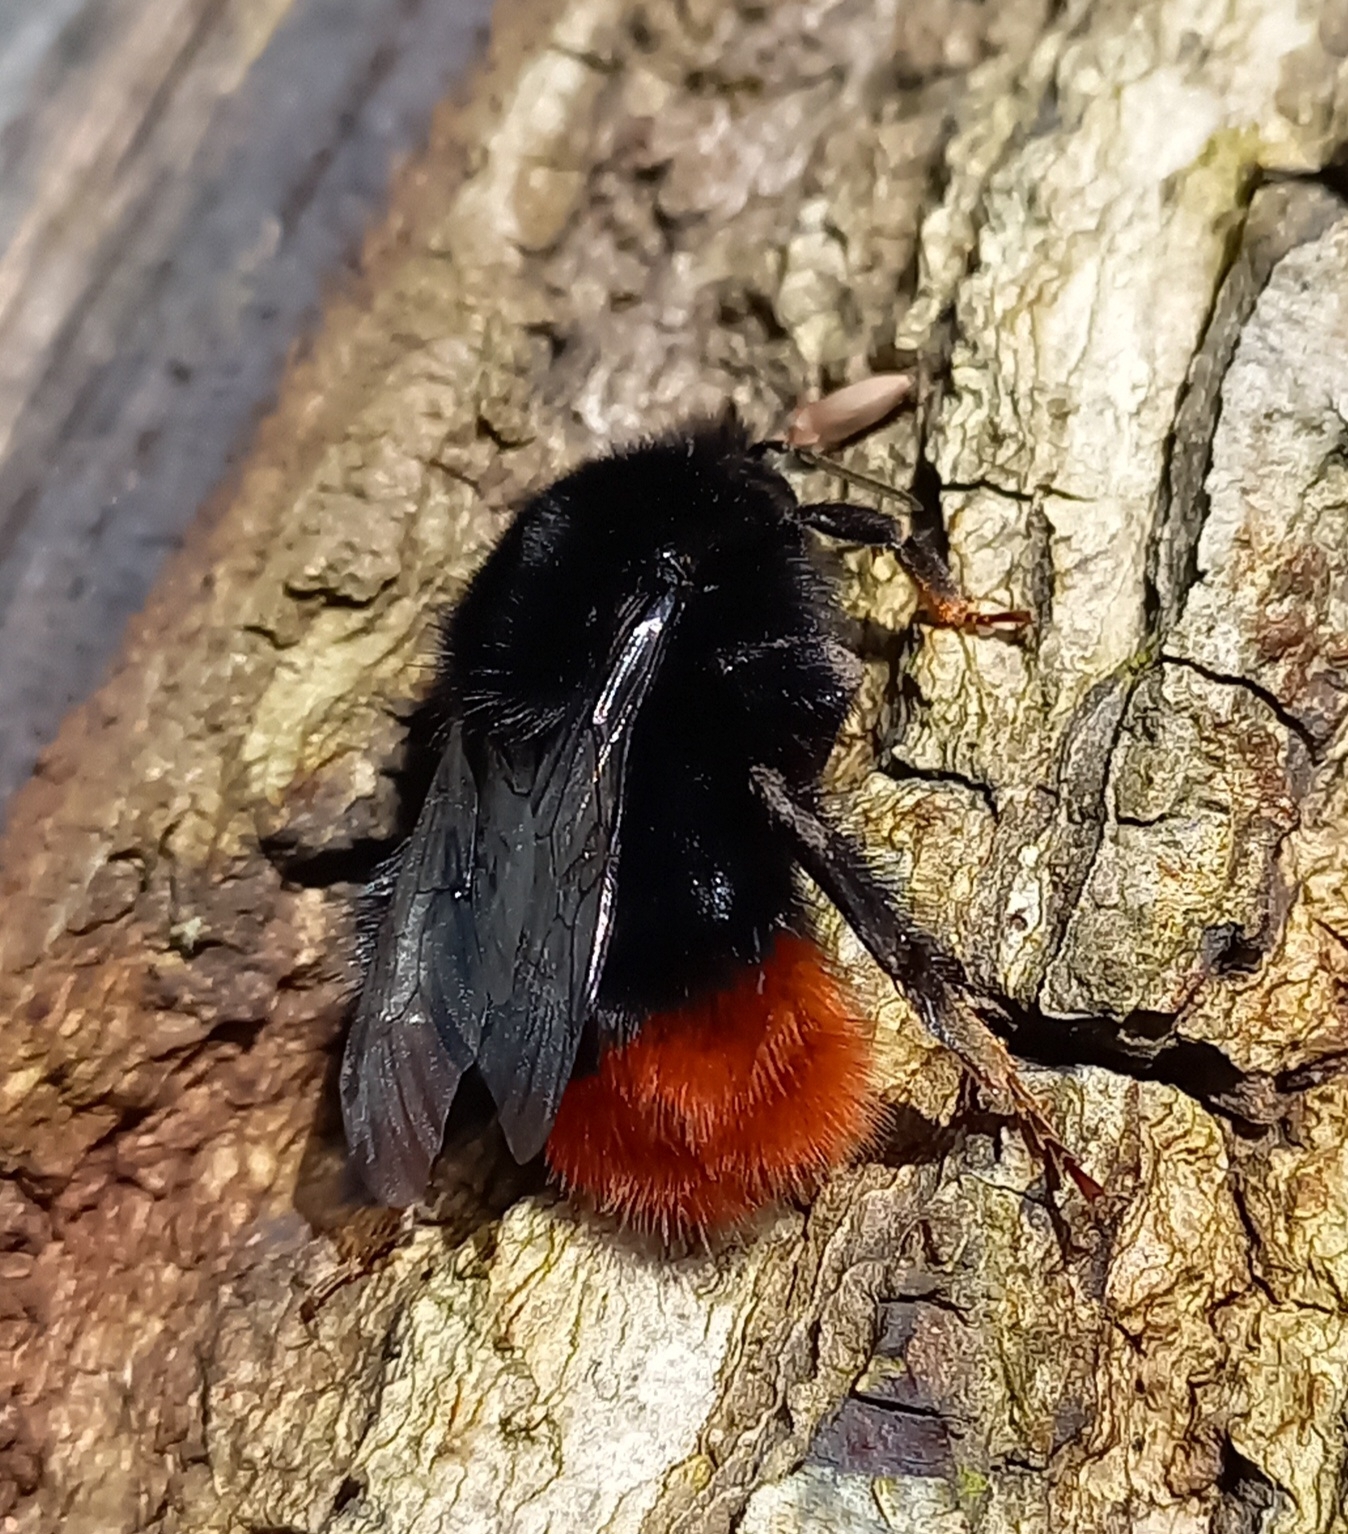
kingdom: Animalia
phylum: Arthropoda
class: Insecta
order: Hymenoptera
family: Apidae
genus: Bombus
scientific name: Bombus lapidarius
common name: Large red-tailed humble-bee
